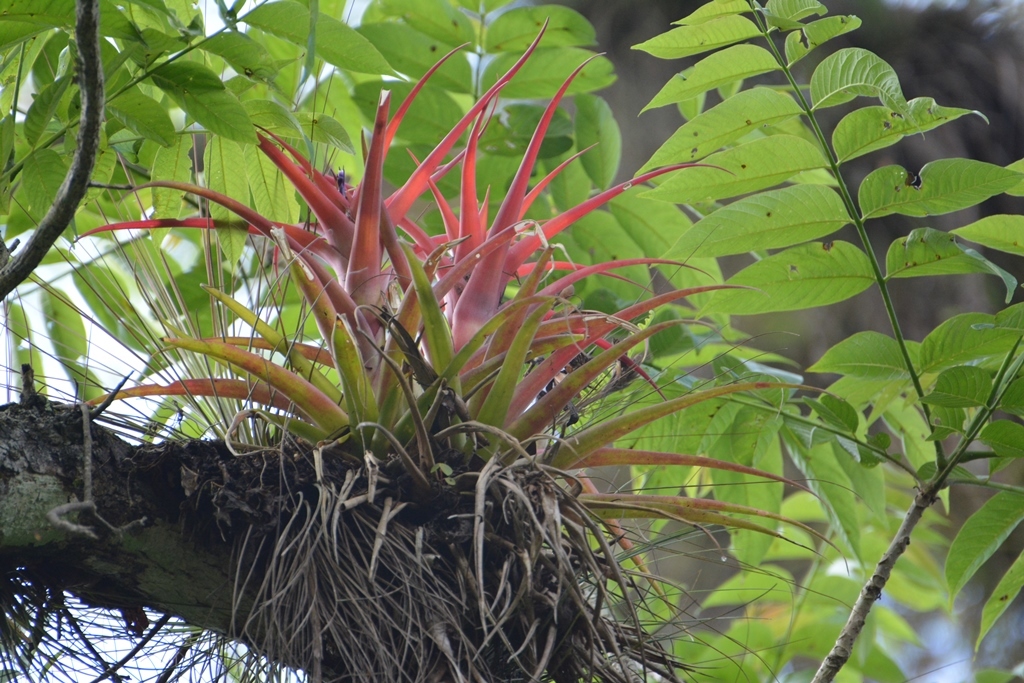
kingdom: Plantae
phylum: Tracheophyta
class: Liliopsida
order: Poales
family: Bromeliaceae
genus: Tillandsia
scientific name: Tillandsia capitata
